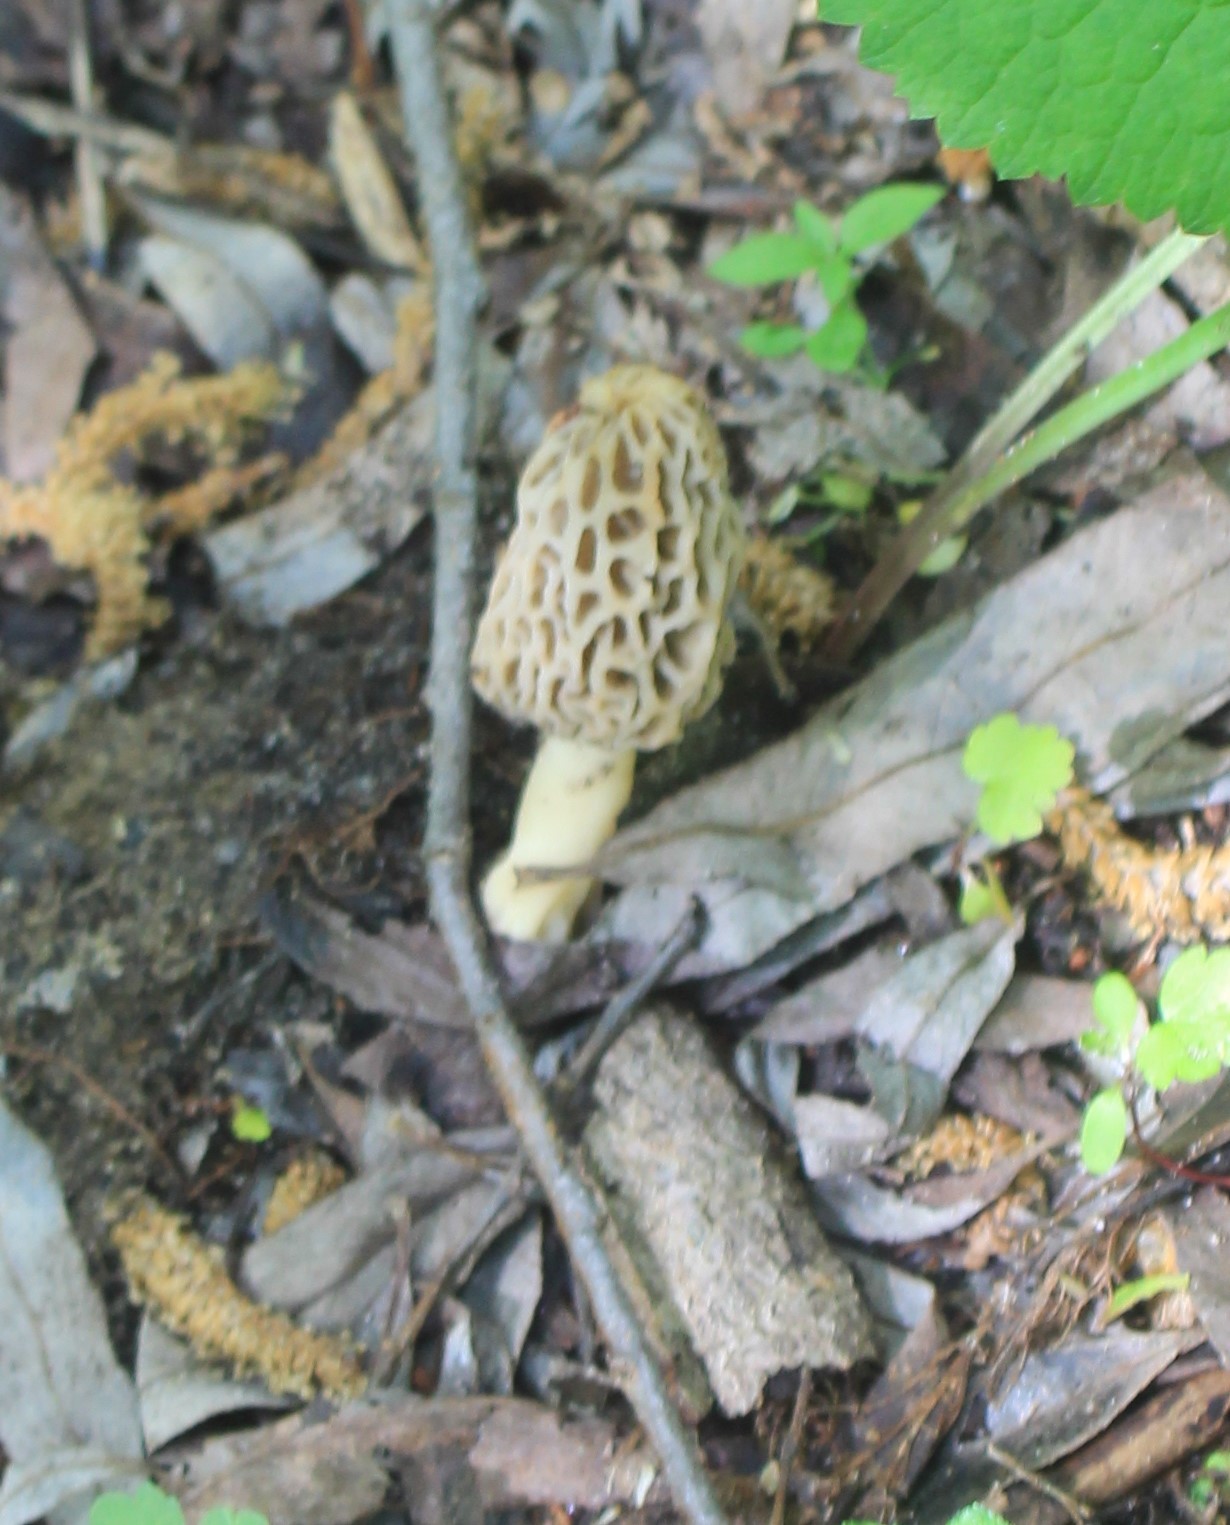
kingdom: Fungi
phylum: Ascomycota
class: Pezizomycetes
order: Pezizales
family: Morchellaceae
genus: Morchella
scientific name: Morchella esculenta
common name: Morel
